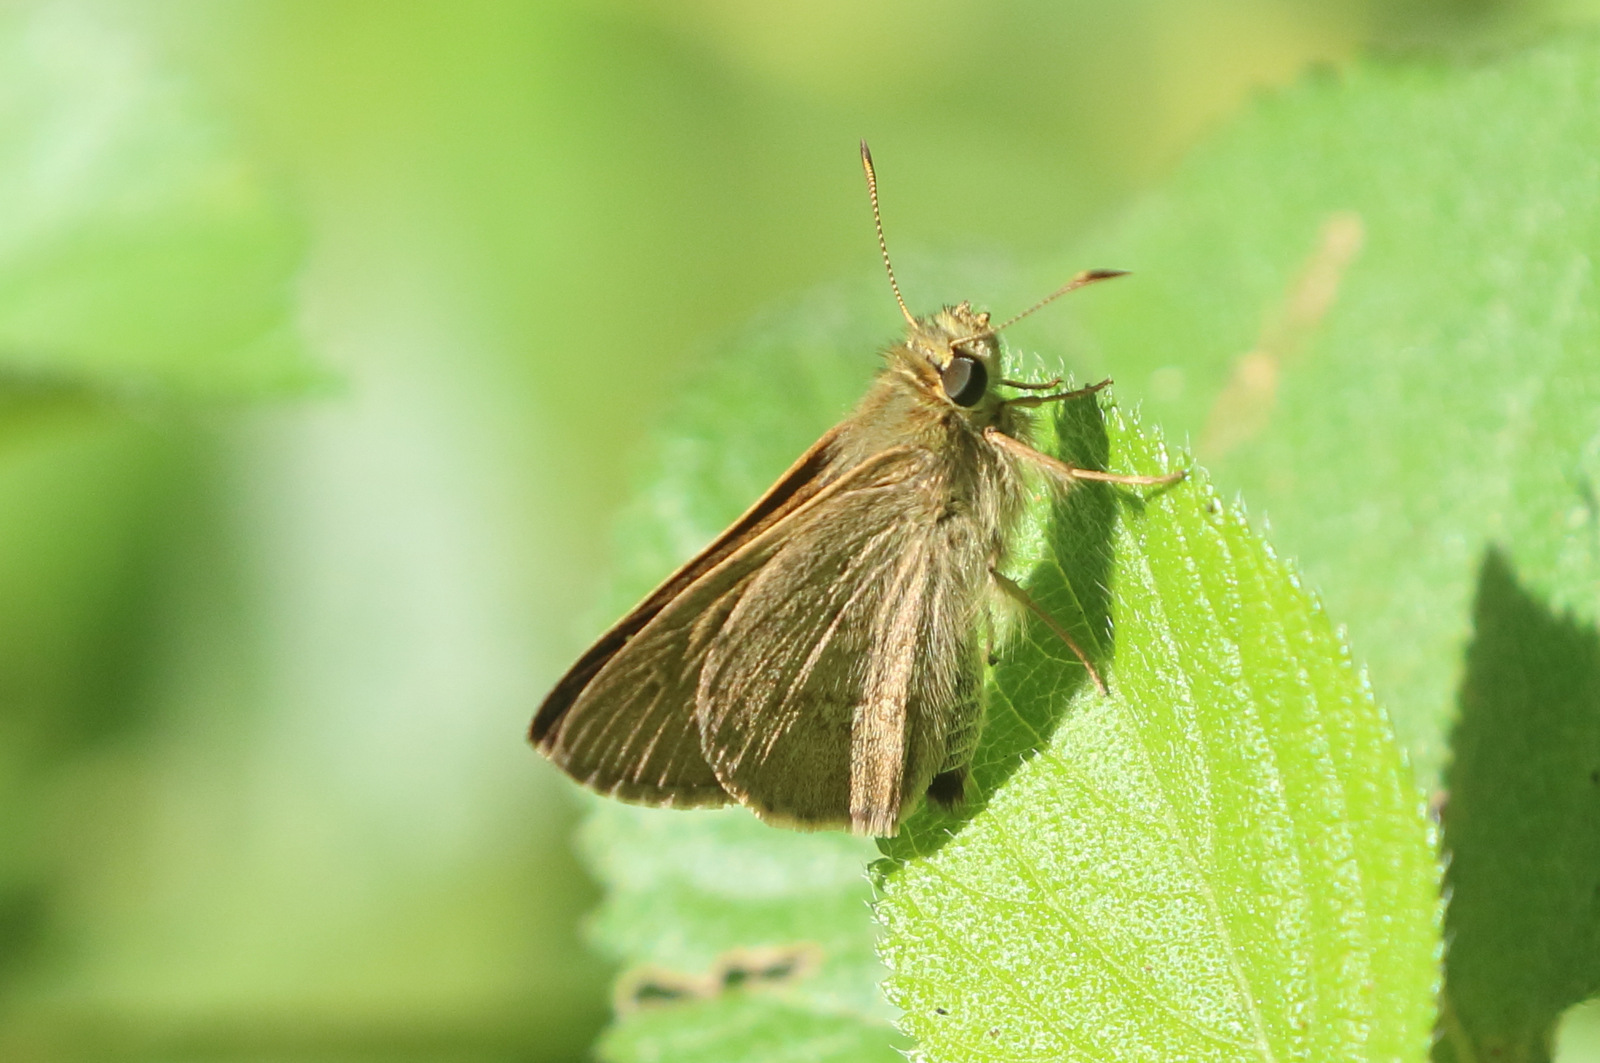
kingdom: Animalia
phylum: Arthropoda
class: Insecta
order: Lepidoptera
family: Hesperiidae
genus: Toxidia
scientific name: Toxidia
